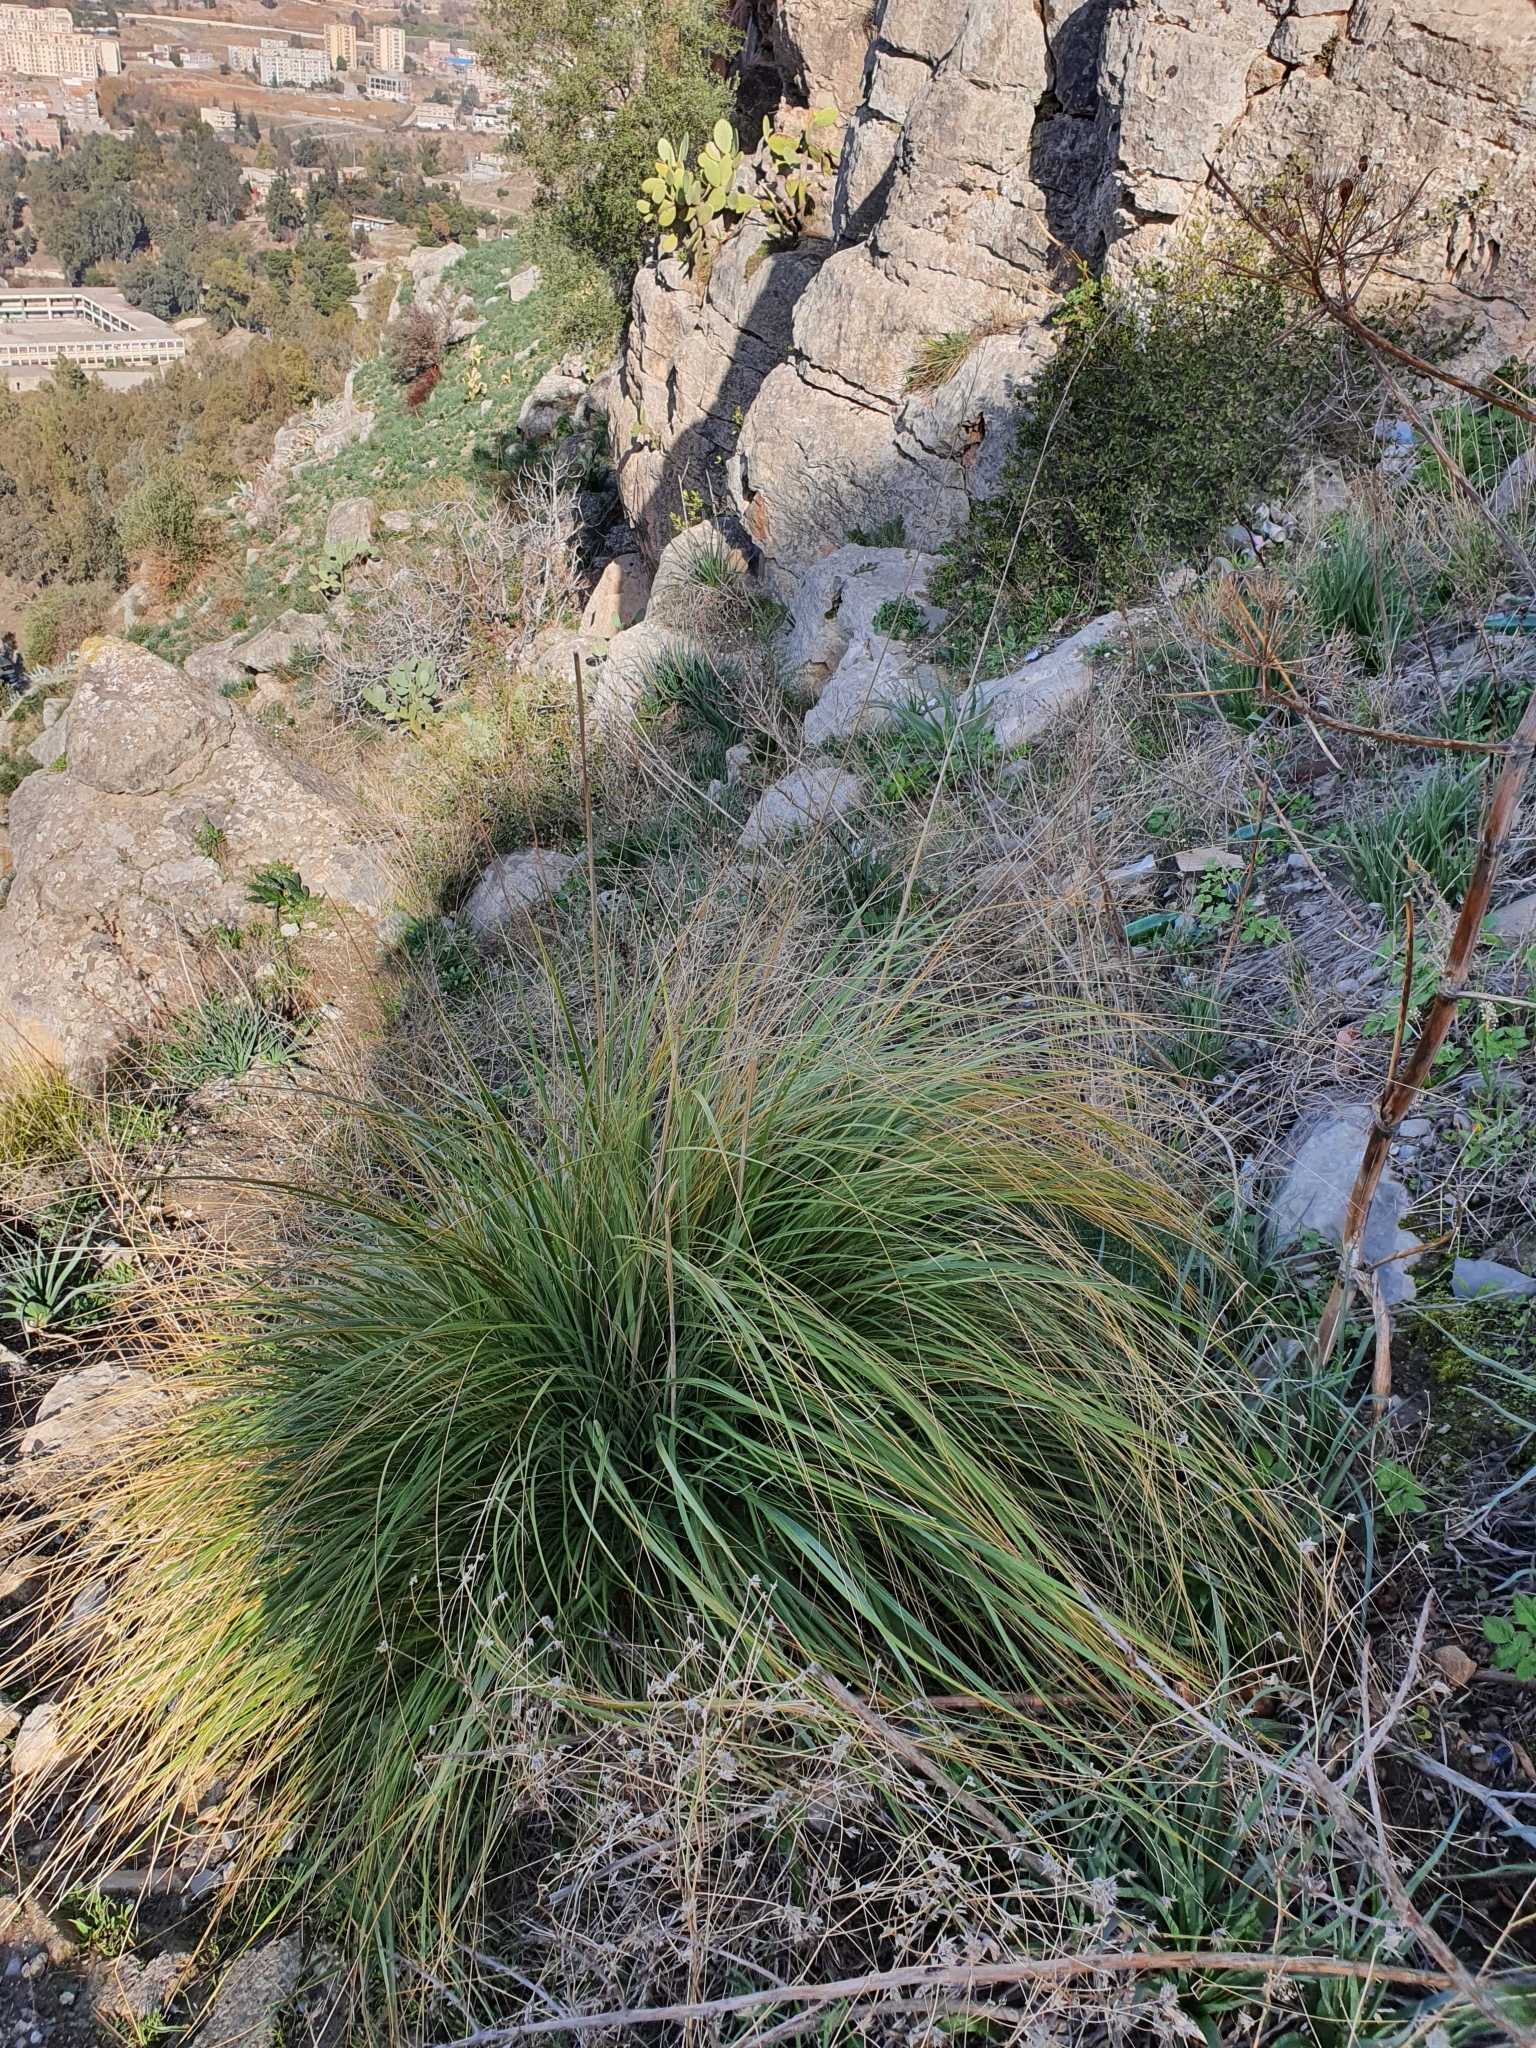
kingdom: Plantae
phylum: Tracheophyta
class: Liliopsida
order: Poales
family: Poaceae
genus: Ampelodesmos
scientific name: Ampelodesmos mauritanicus
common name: Mauritanian grass
